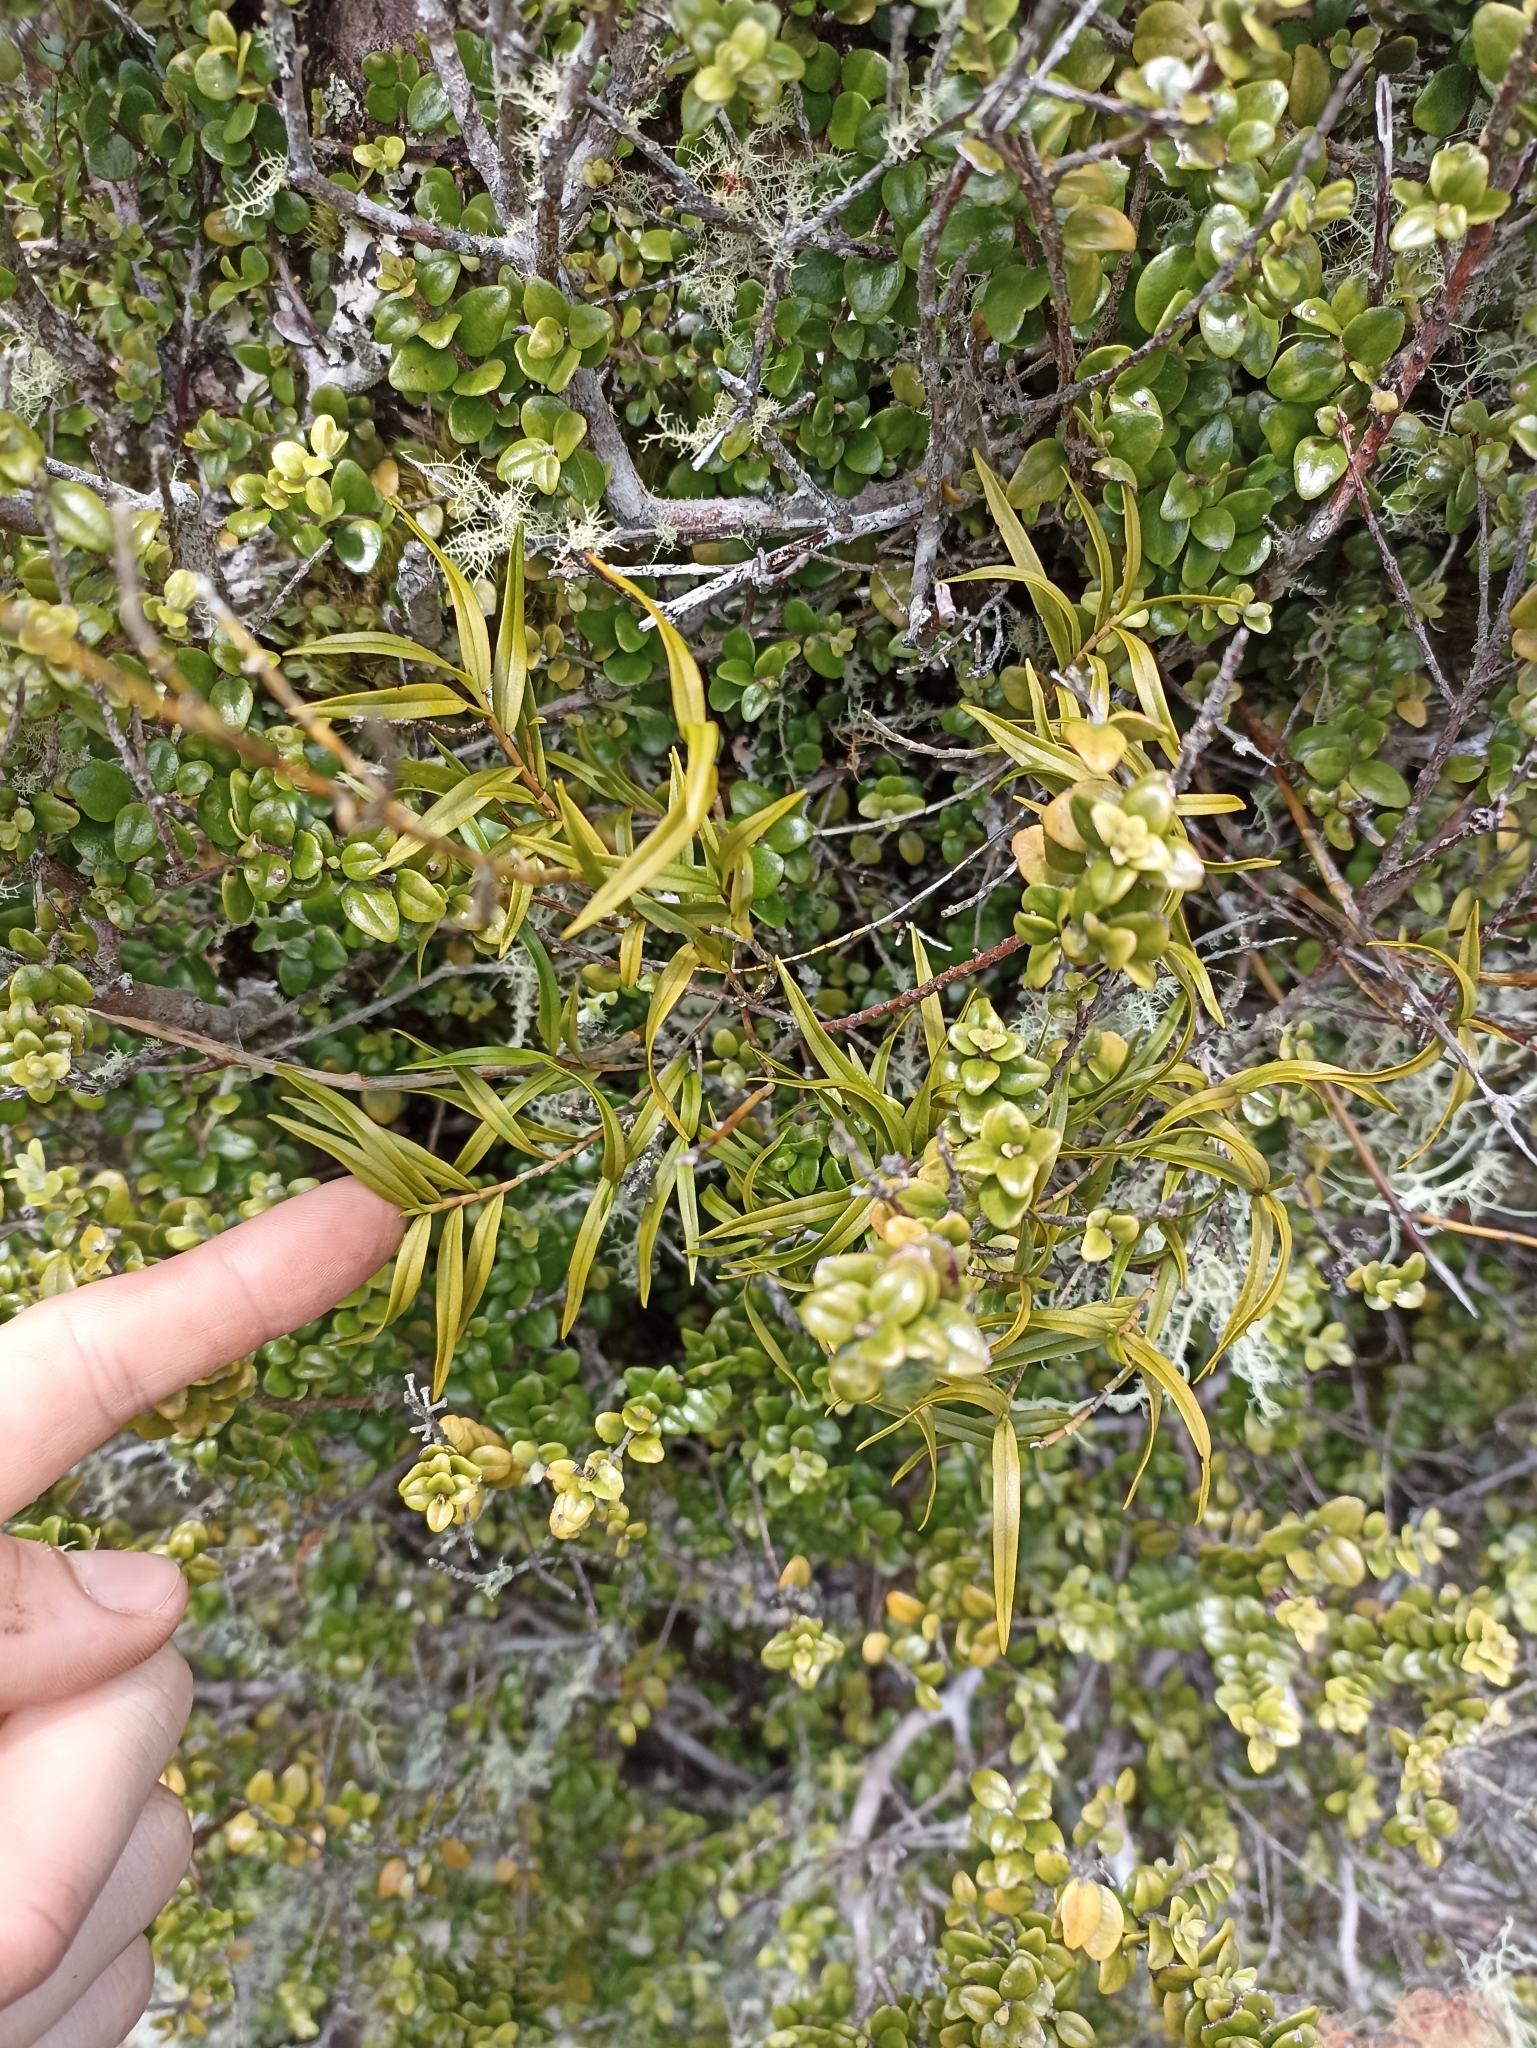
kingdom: Plantae
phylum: Tracheophyta
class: Liliopsida
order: Asparagales
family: Orchidaceae
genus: Dendrobium
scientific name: Dendrobium cunninghamii
